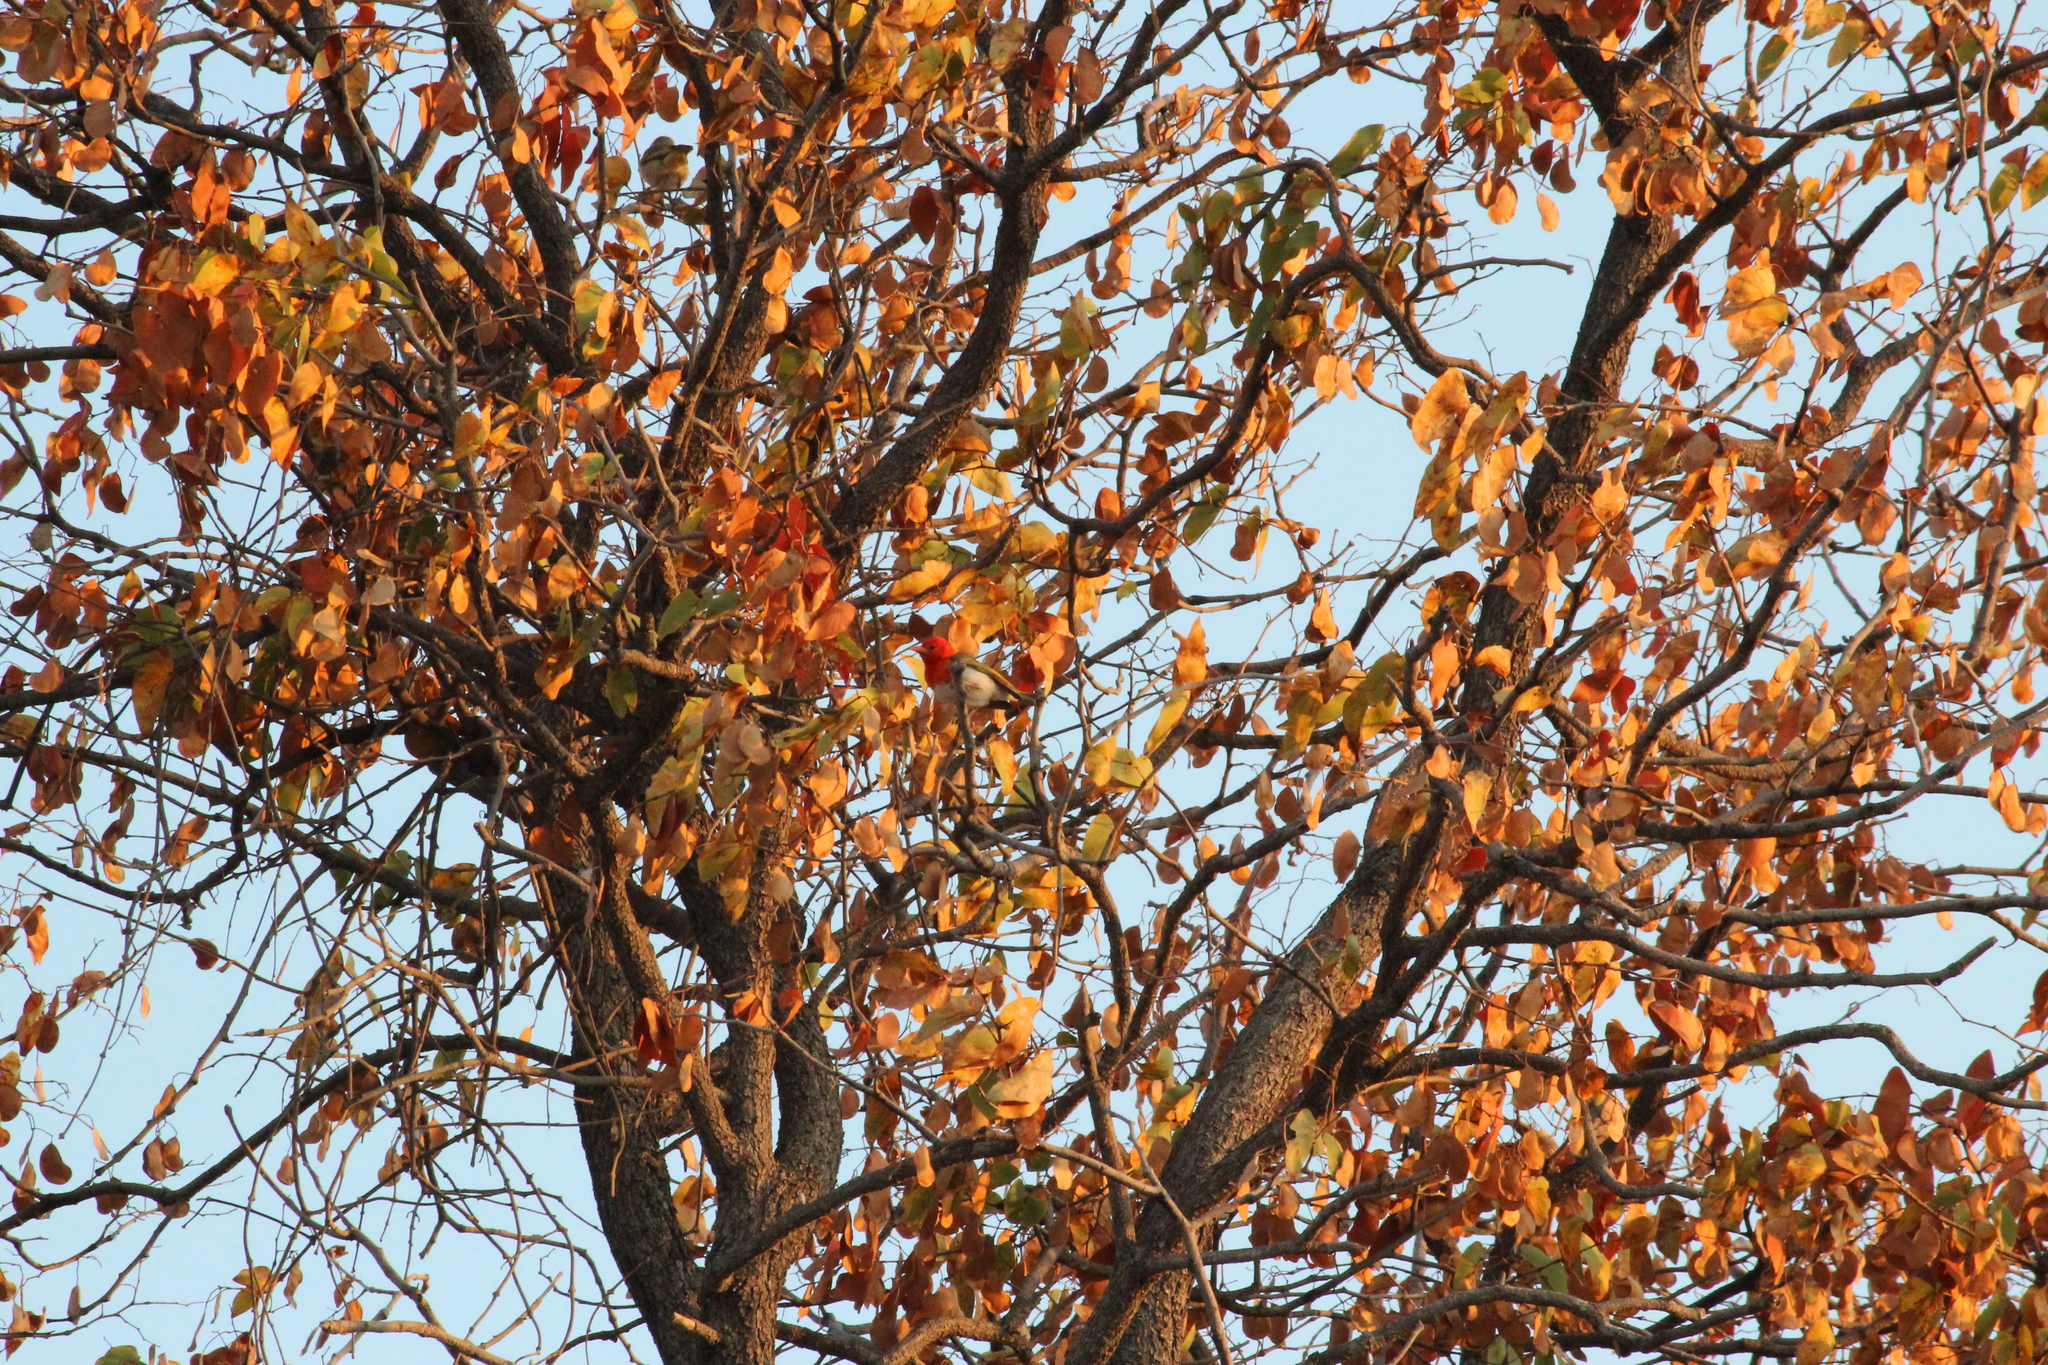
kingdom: Animalia
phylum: Chordata
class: Aves
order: Passeriformes
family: Ploceidae
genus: Anaplectes
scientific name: Anaplectes rubriceps
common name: Red-headed weaver
